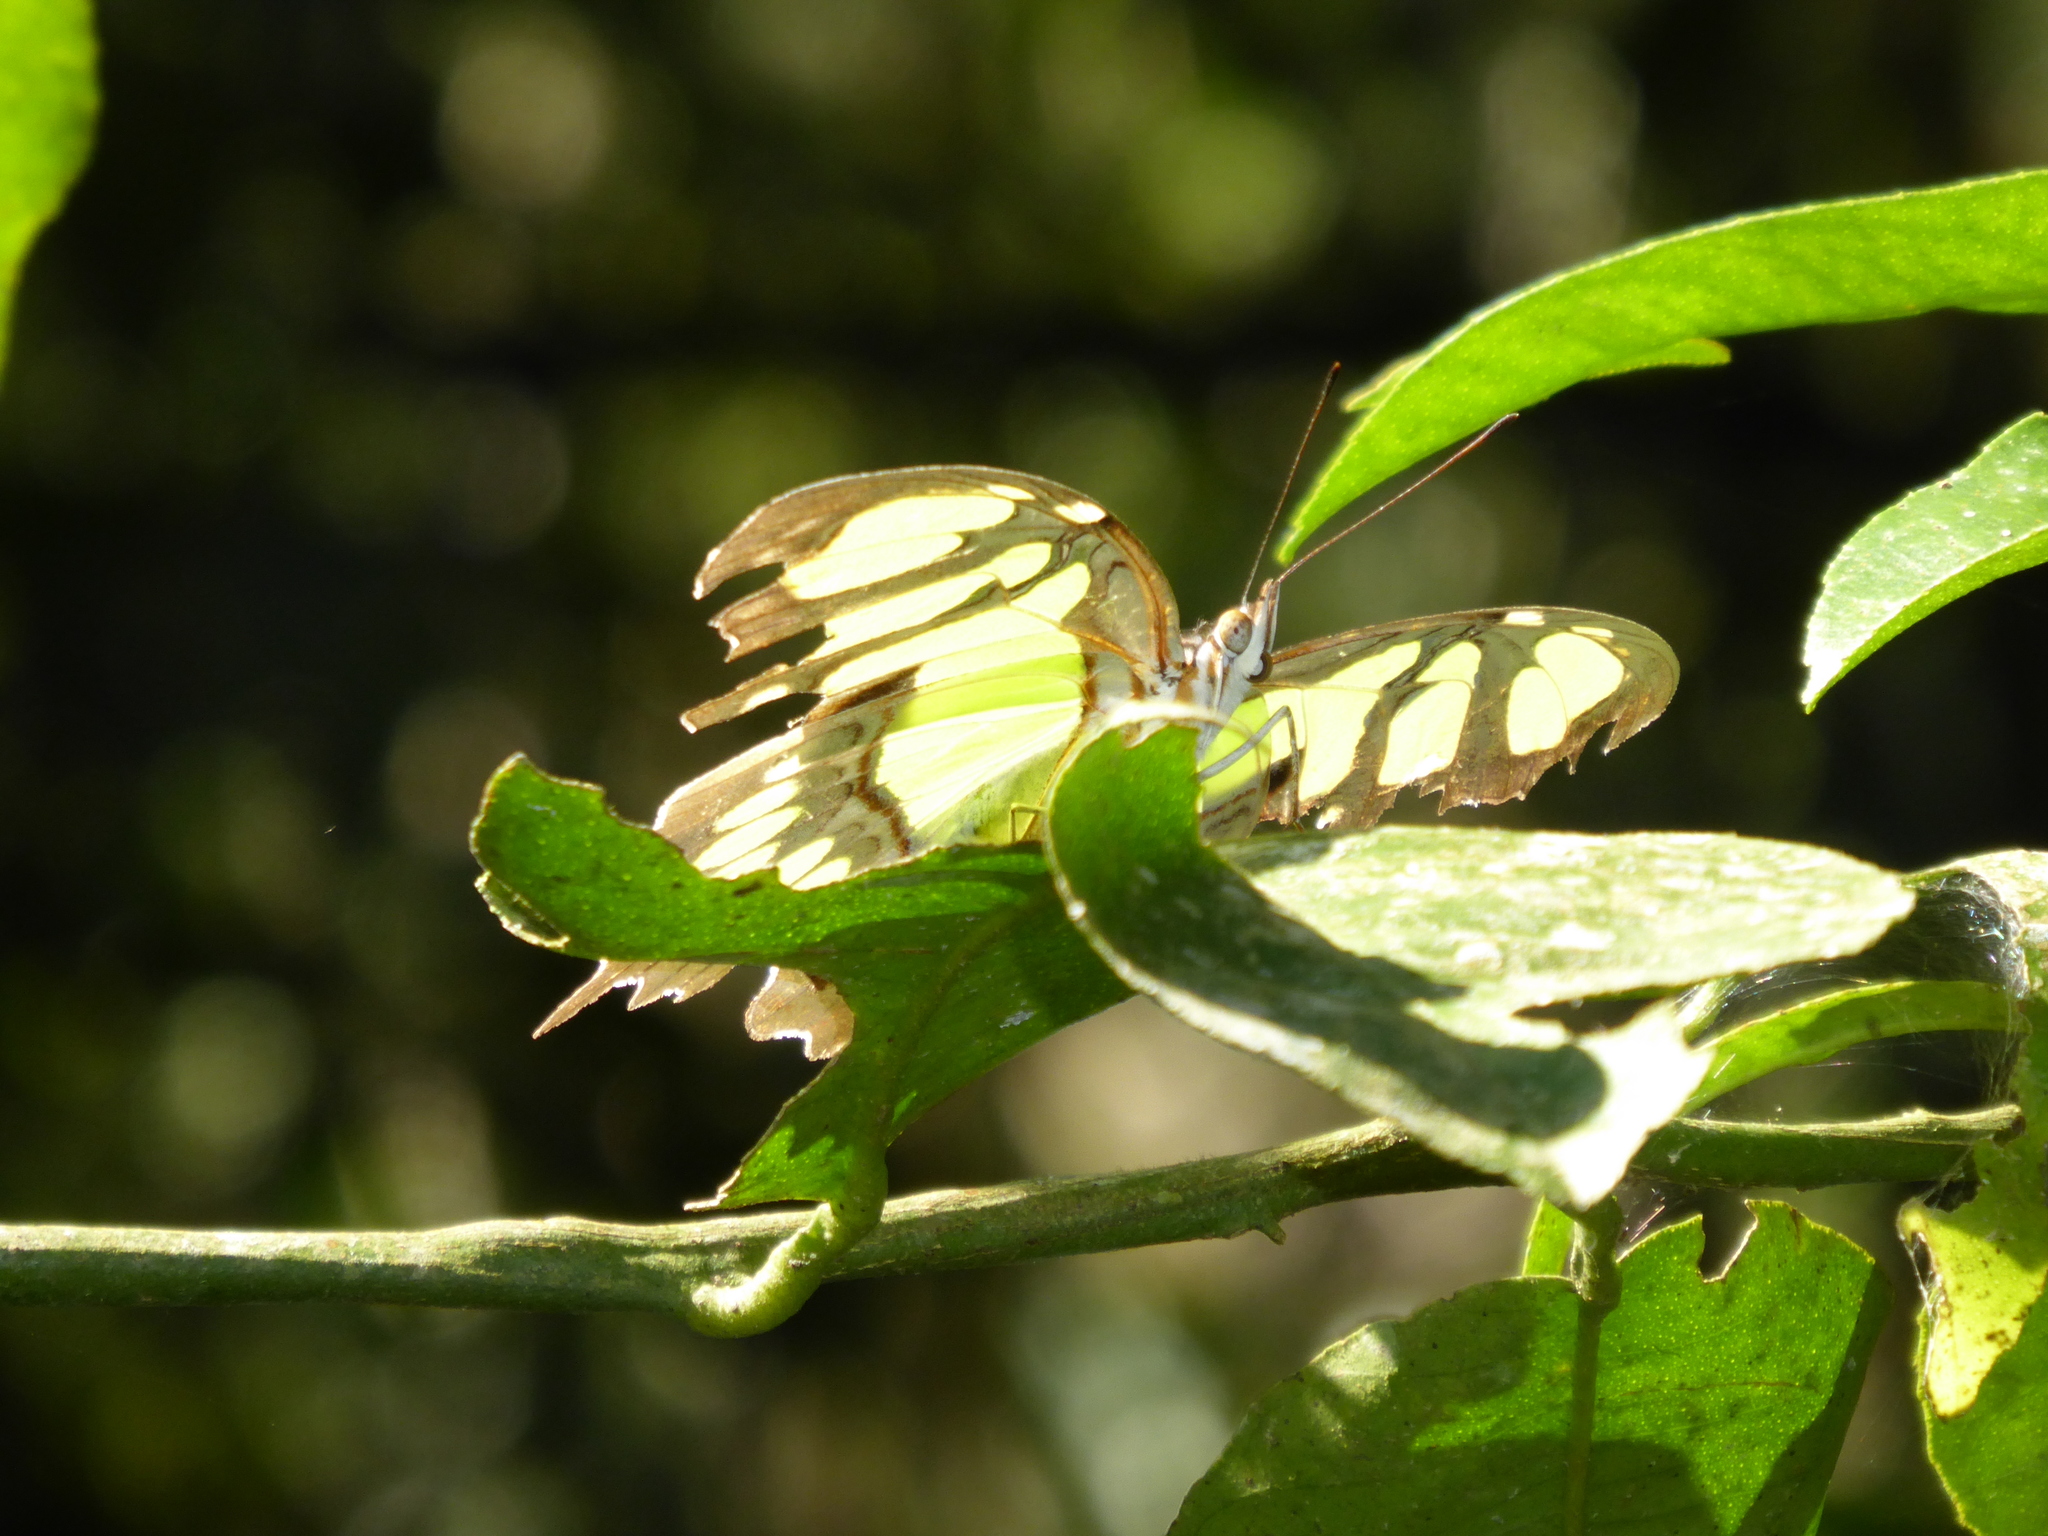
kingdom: Animalia
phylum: Arthropoda
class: Insecta
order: Lepidoptera
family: Nymphalidae
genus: Siproeta
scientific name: Siproeta stelenes
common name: Malachite
